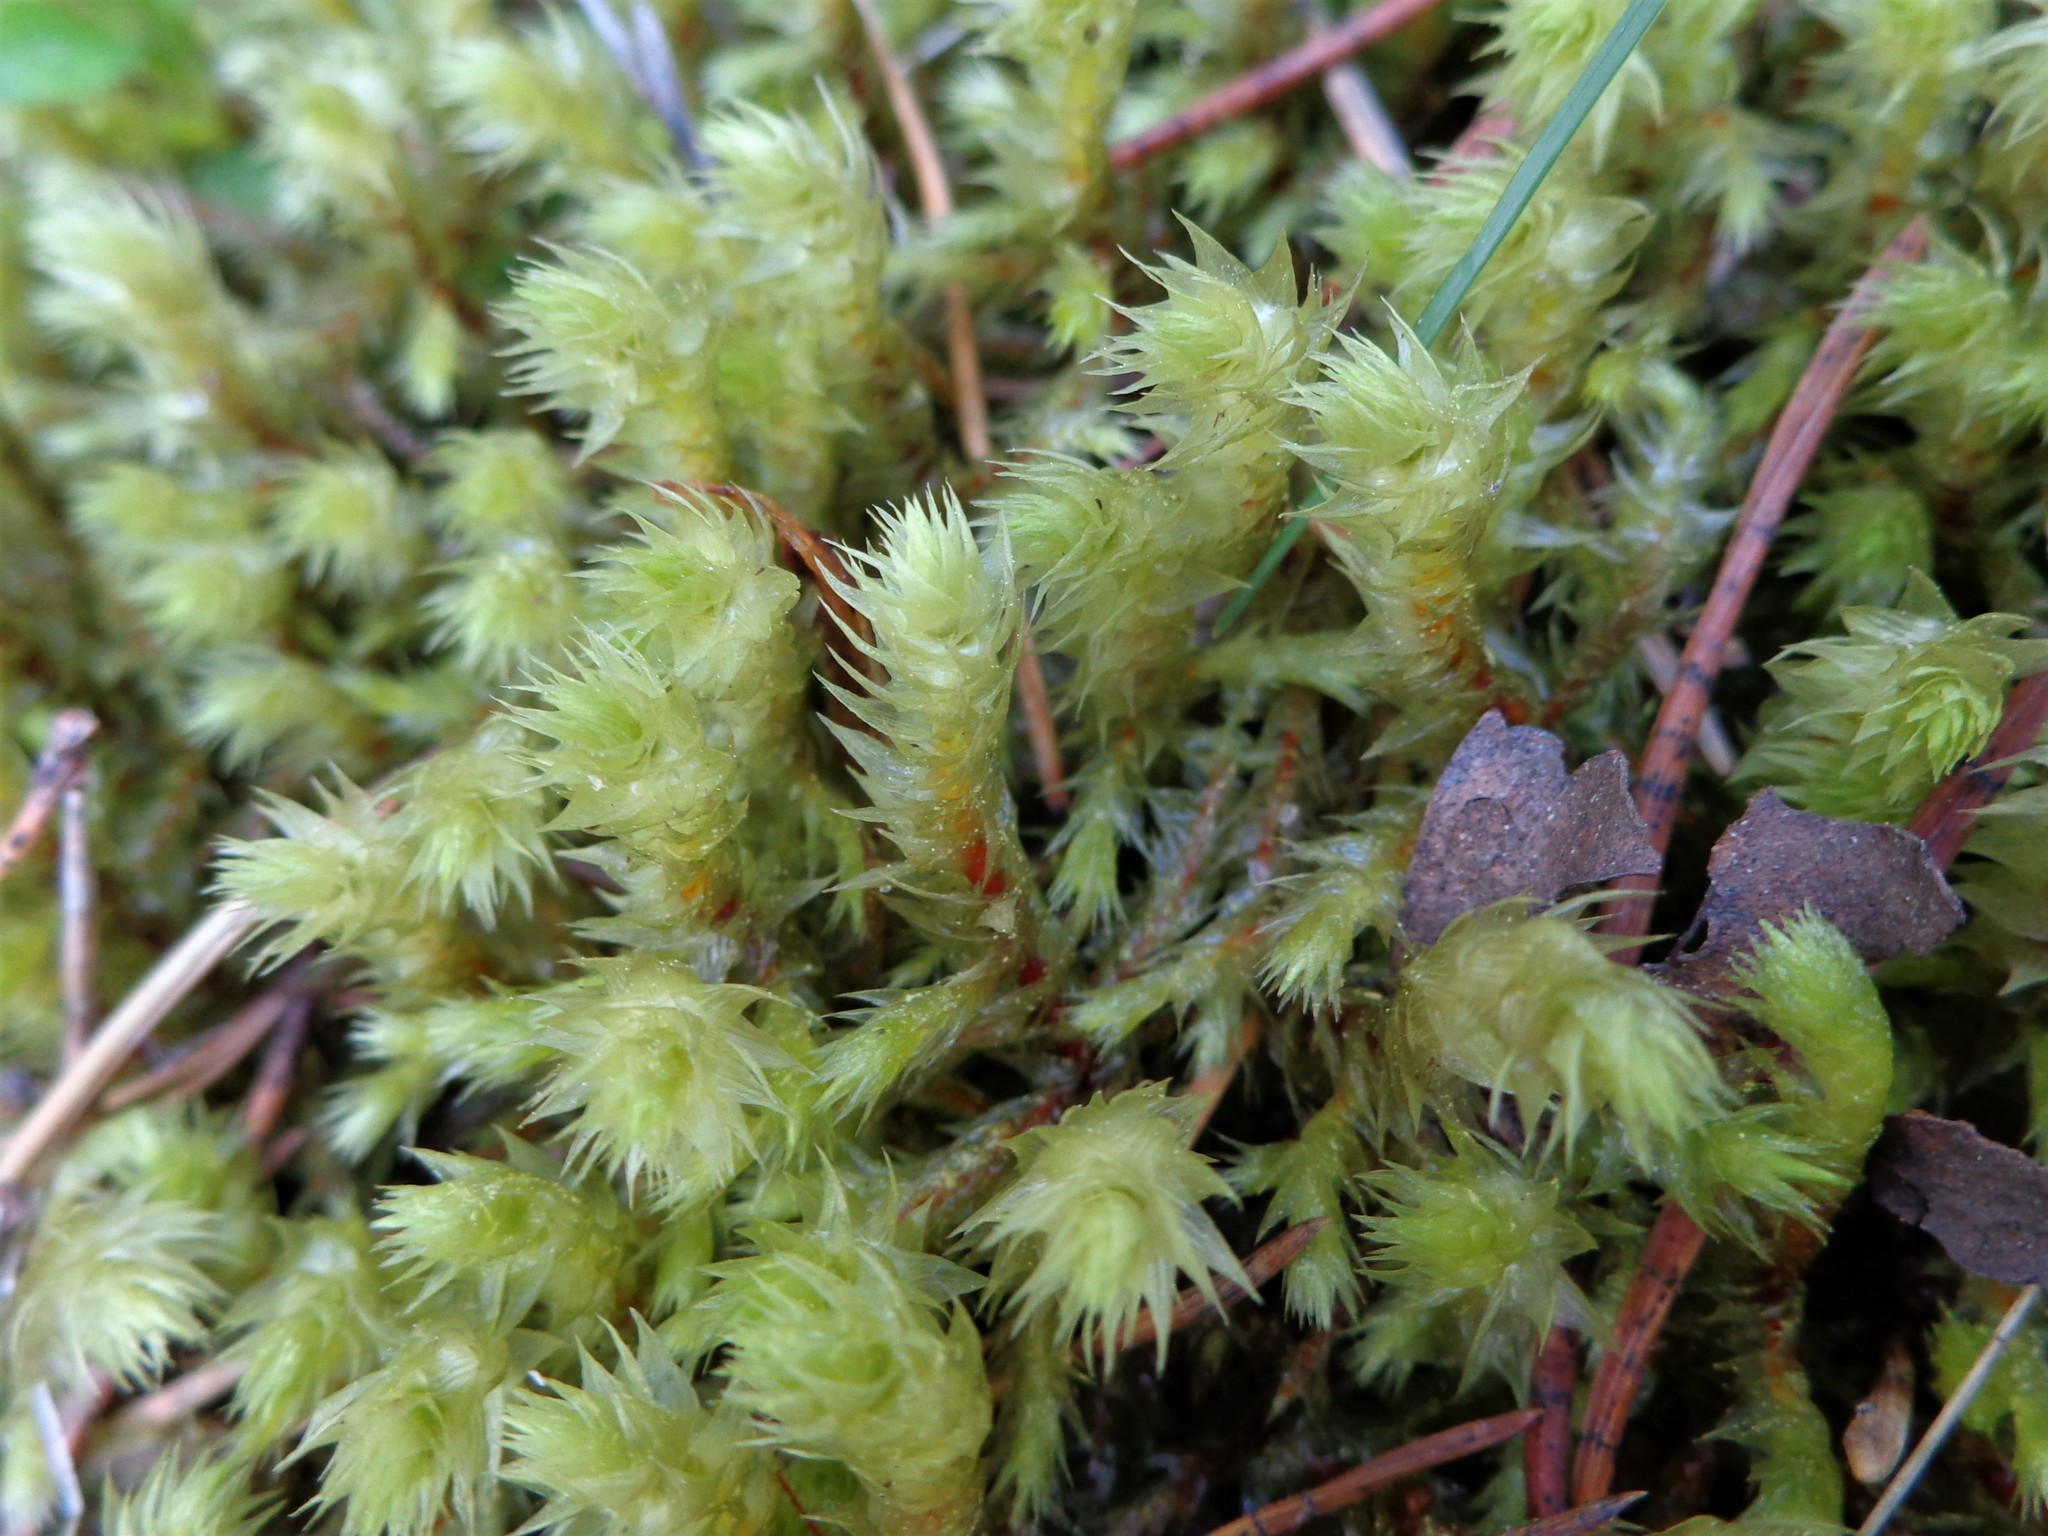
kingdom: Plantae
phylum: Bryophyta
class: Bryopsida
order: Hypnales
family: Hylocomiaceae
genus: Hylocomiadelphus
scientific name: Hylocomiadelphus triquetrus
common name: Rough goose neck moss
